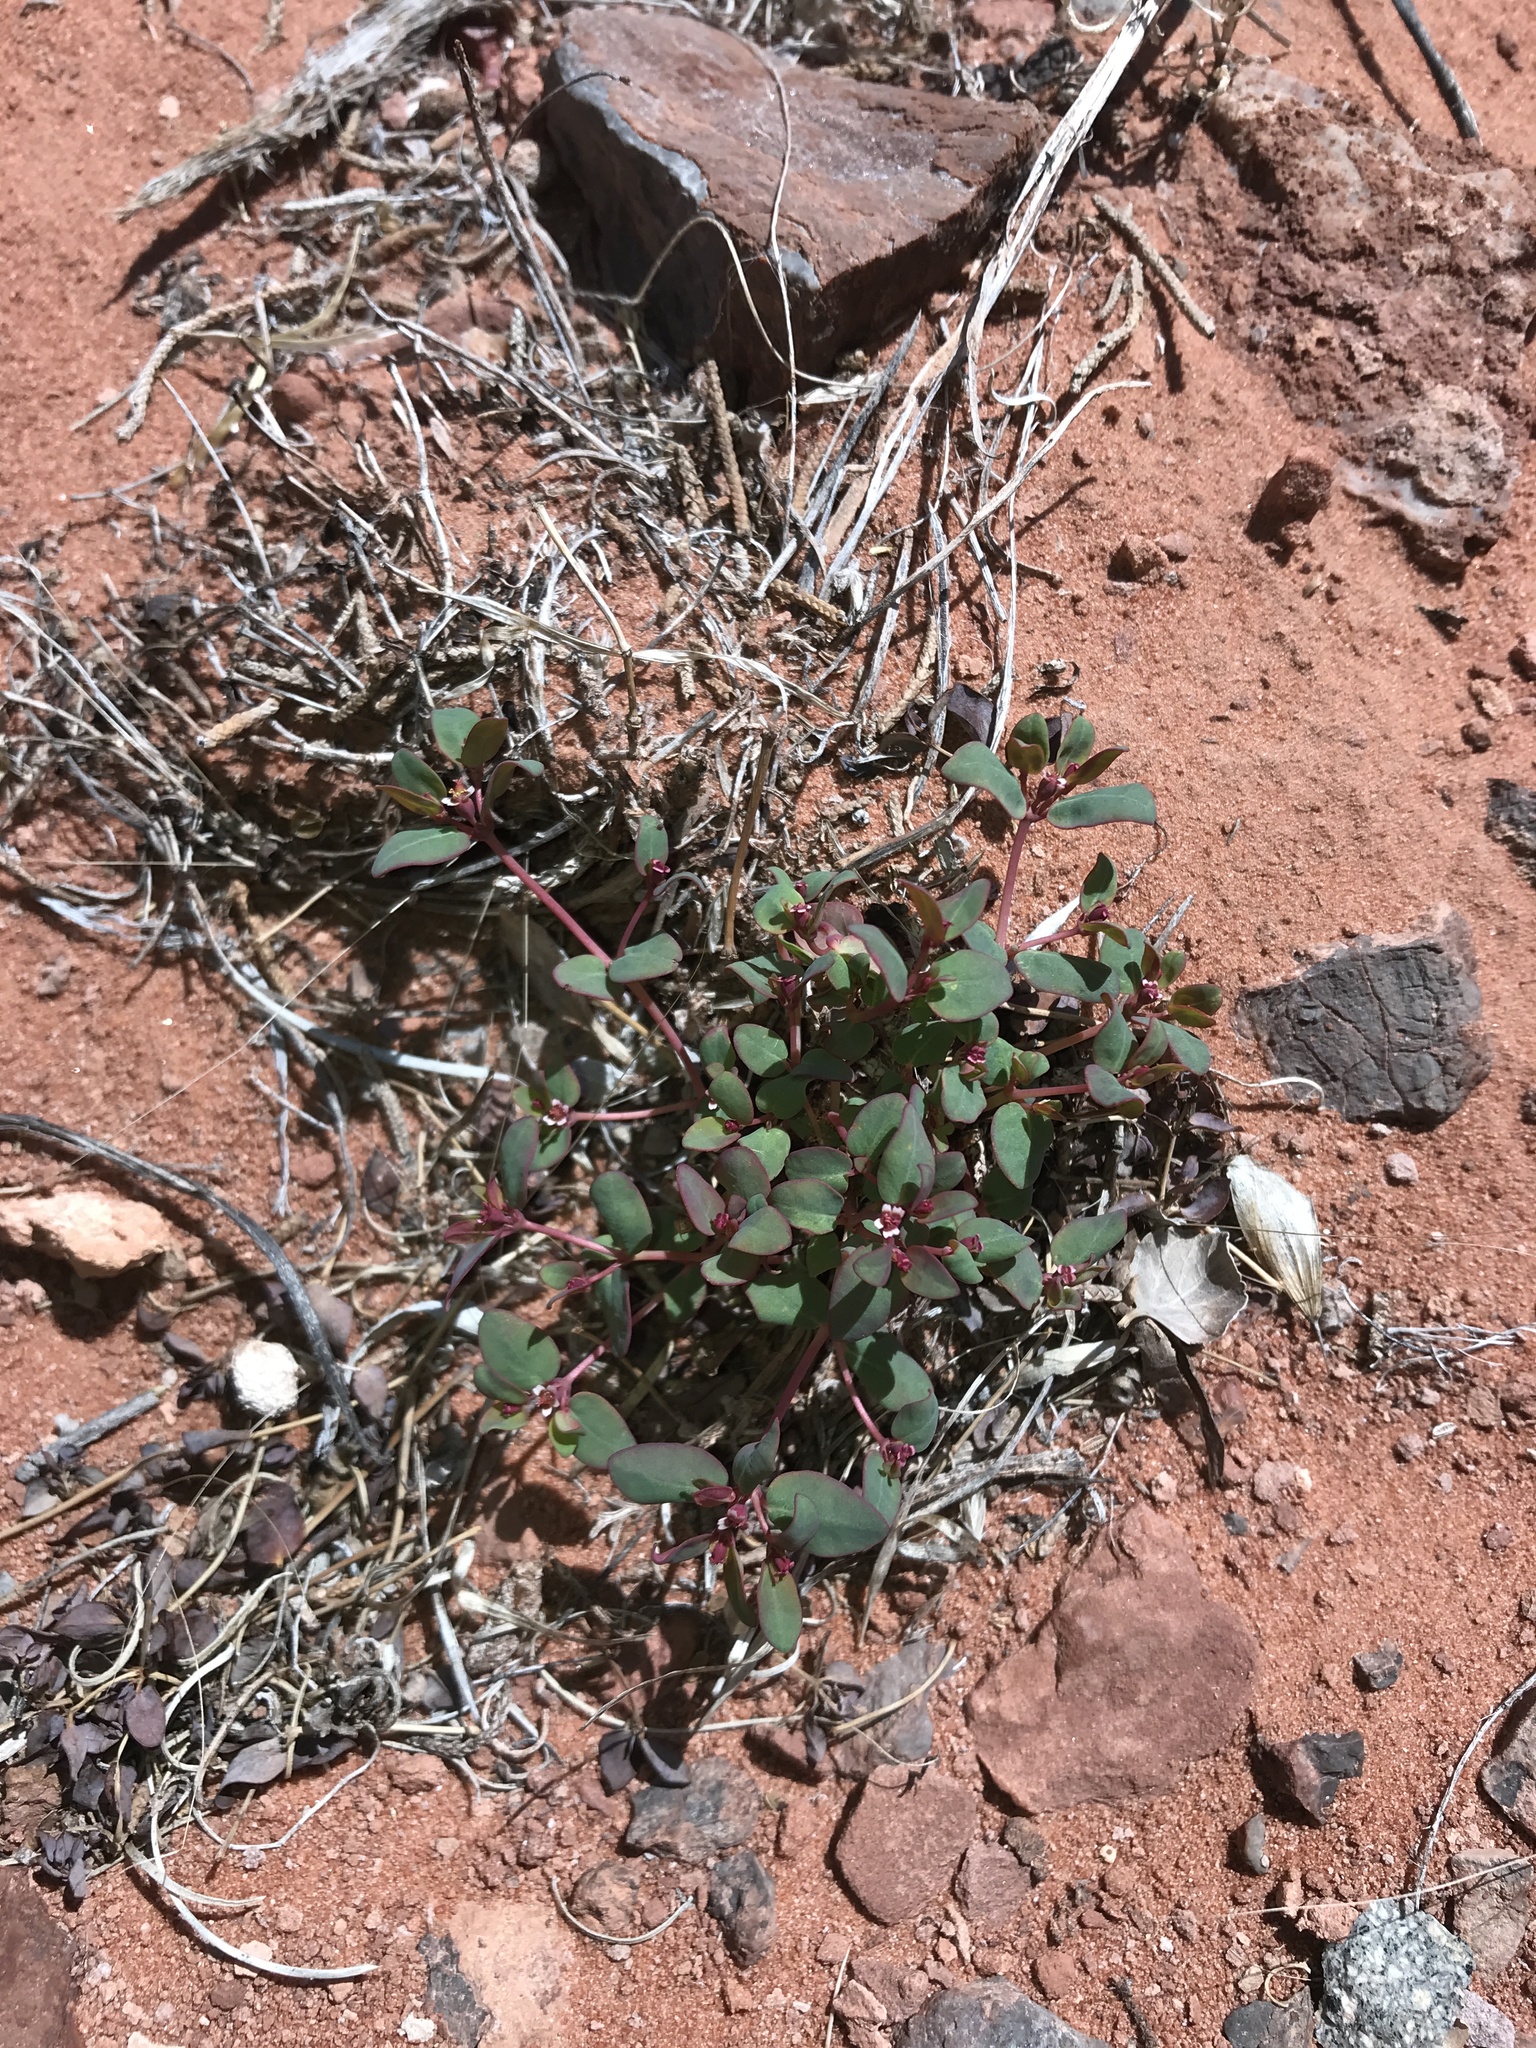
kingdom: Plantae
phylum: Tracheophyta
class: Magnoliopsida
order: Malpighiales
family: Euphorbiaceae
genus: Euphorbia
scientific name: Euphorbia fendleri
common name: Fendler's euphorbia
